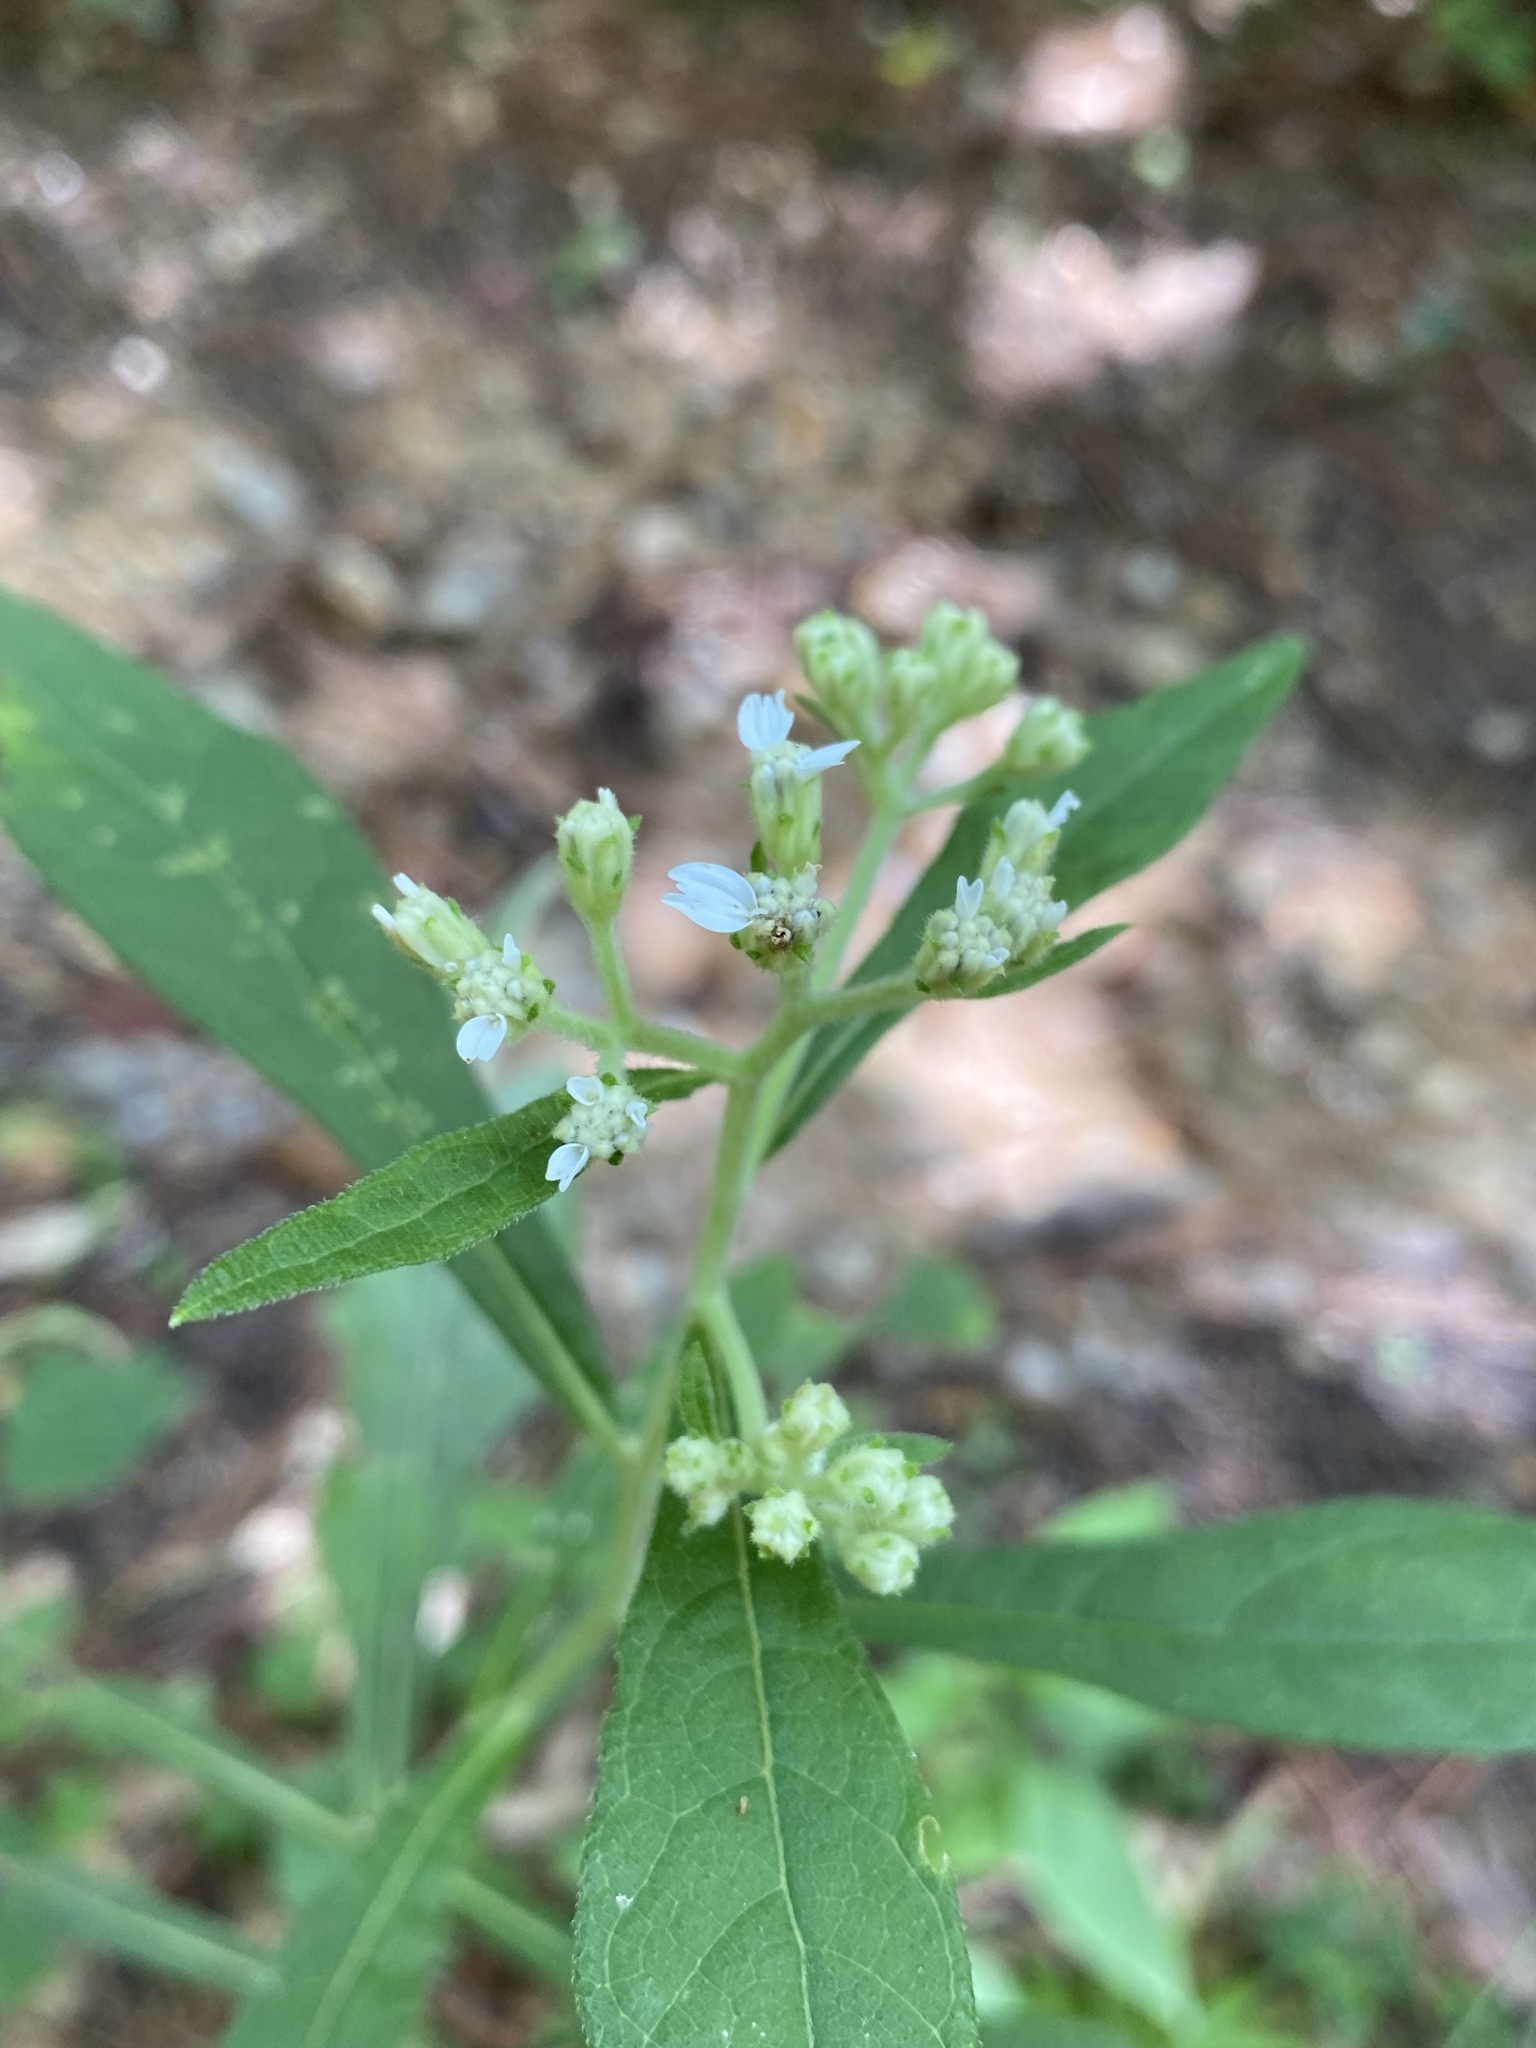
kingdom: Plantae
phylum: Tracheophyta
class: Magnoliopsida
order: Asterales
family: Asteraceae
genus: Verbesina
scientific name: Verbesina virginica
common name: Frostweed
